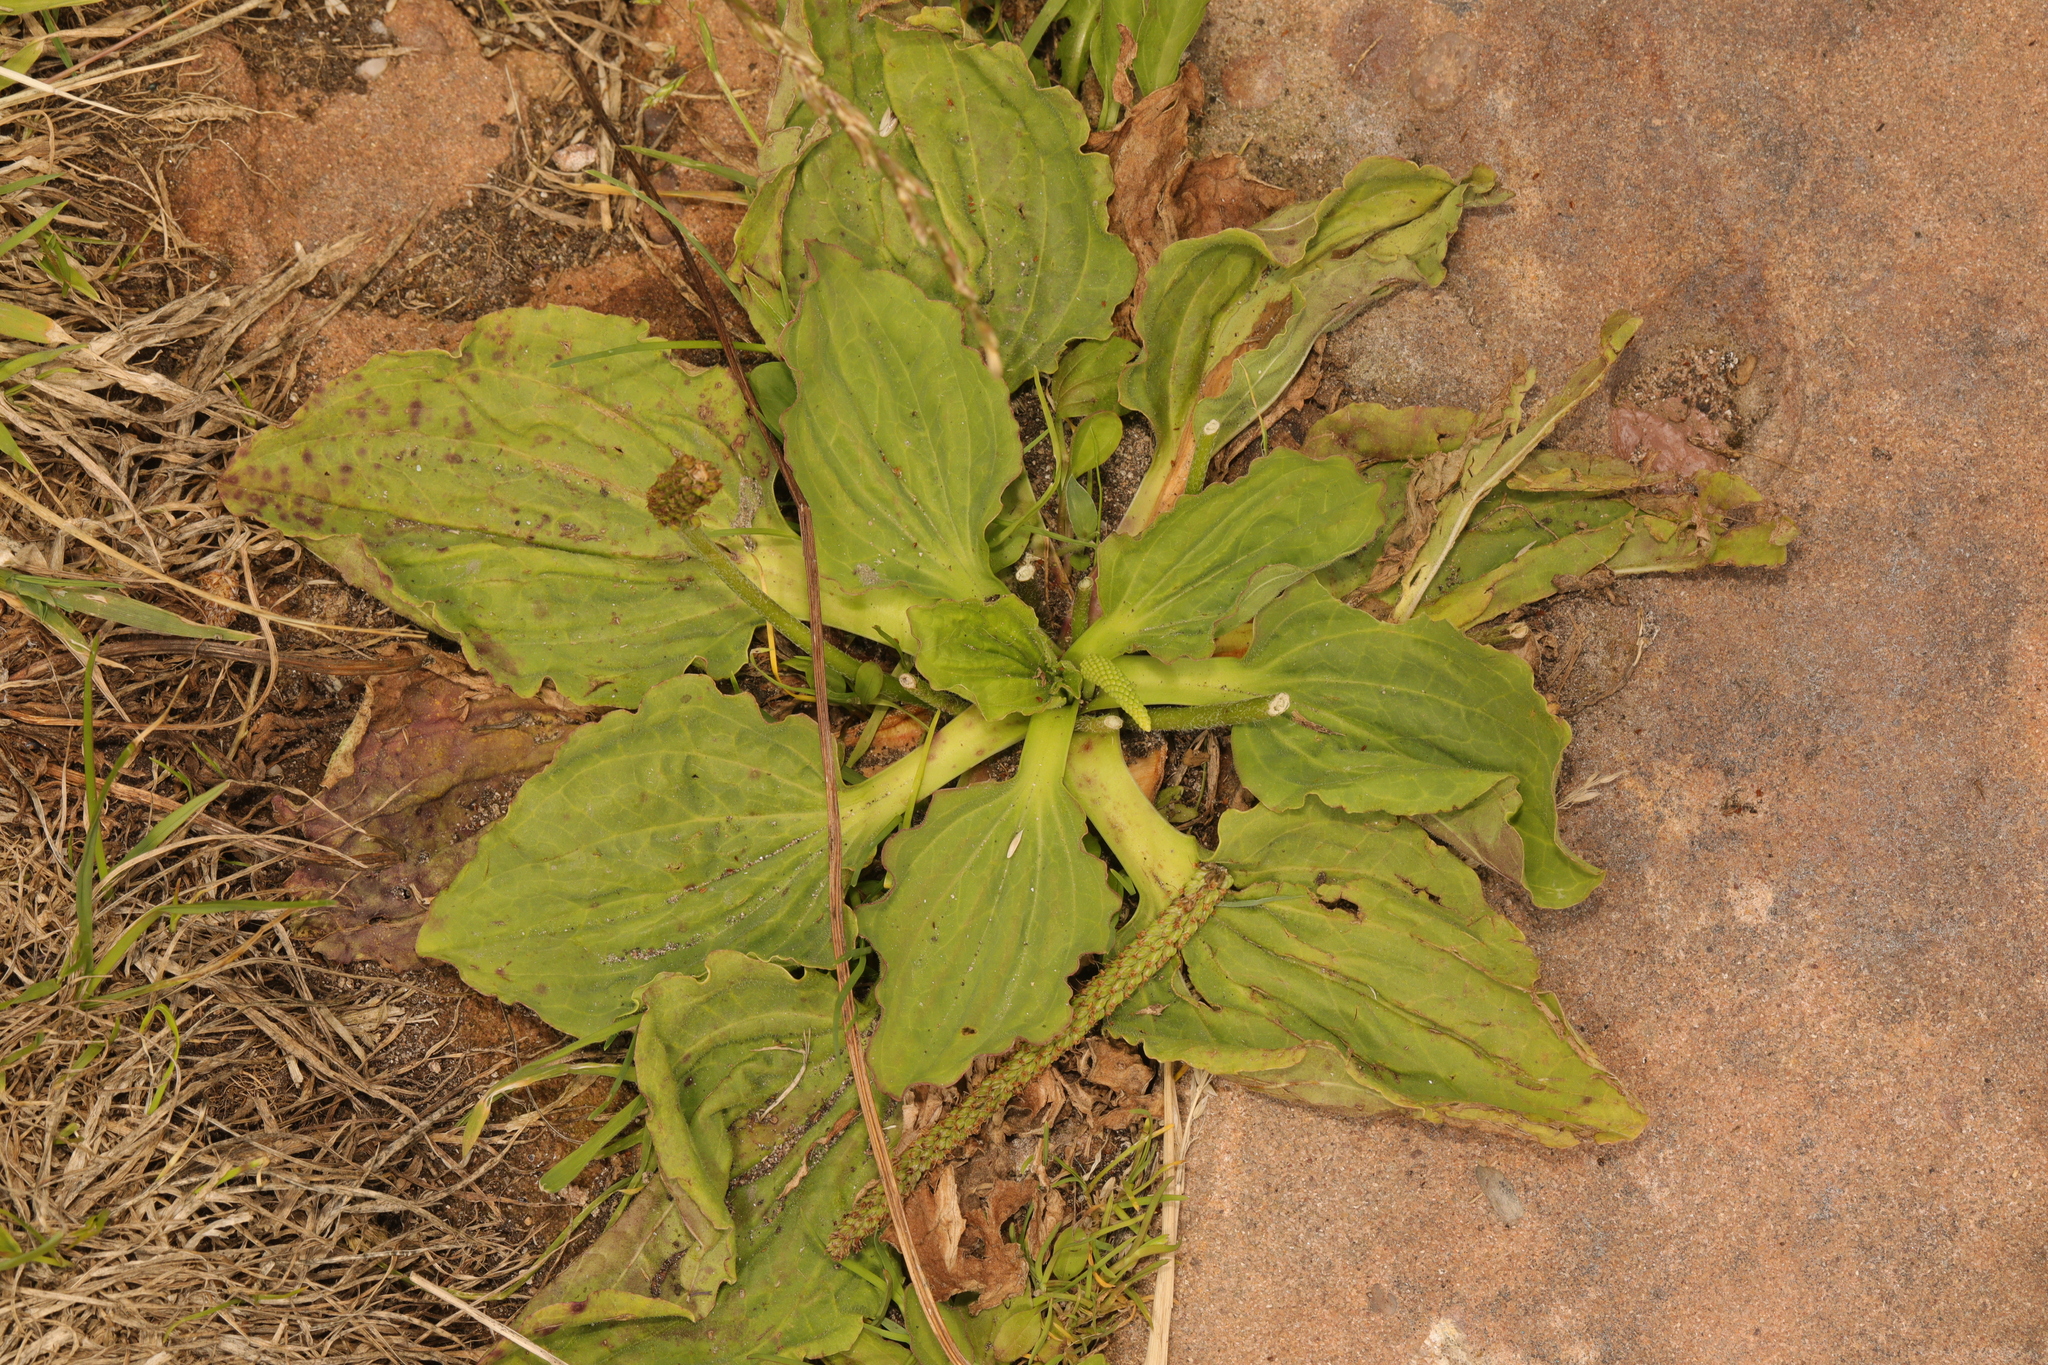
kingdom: Plantae
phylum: Tracheophyta
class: Magnoliopsida
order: Lamiales
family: Plantaginaceae
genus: Plantago
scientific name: Plantago major
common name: Common plantain
